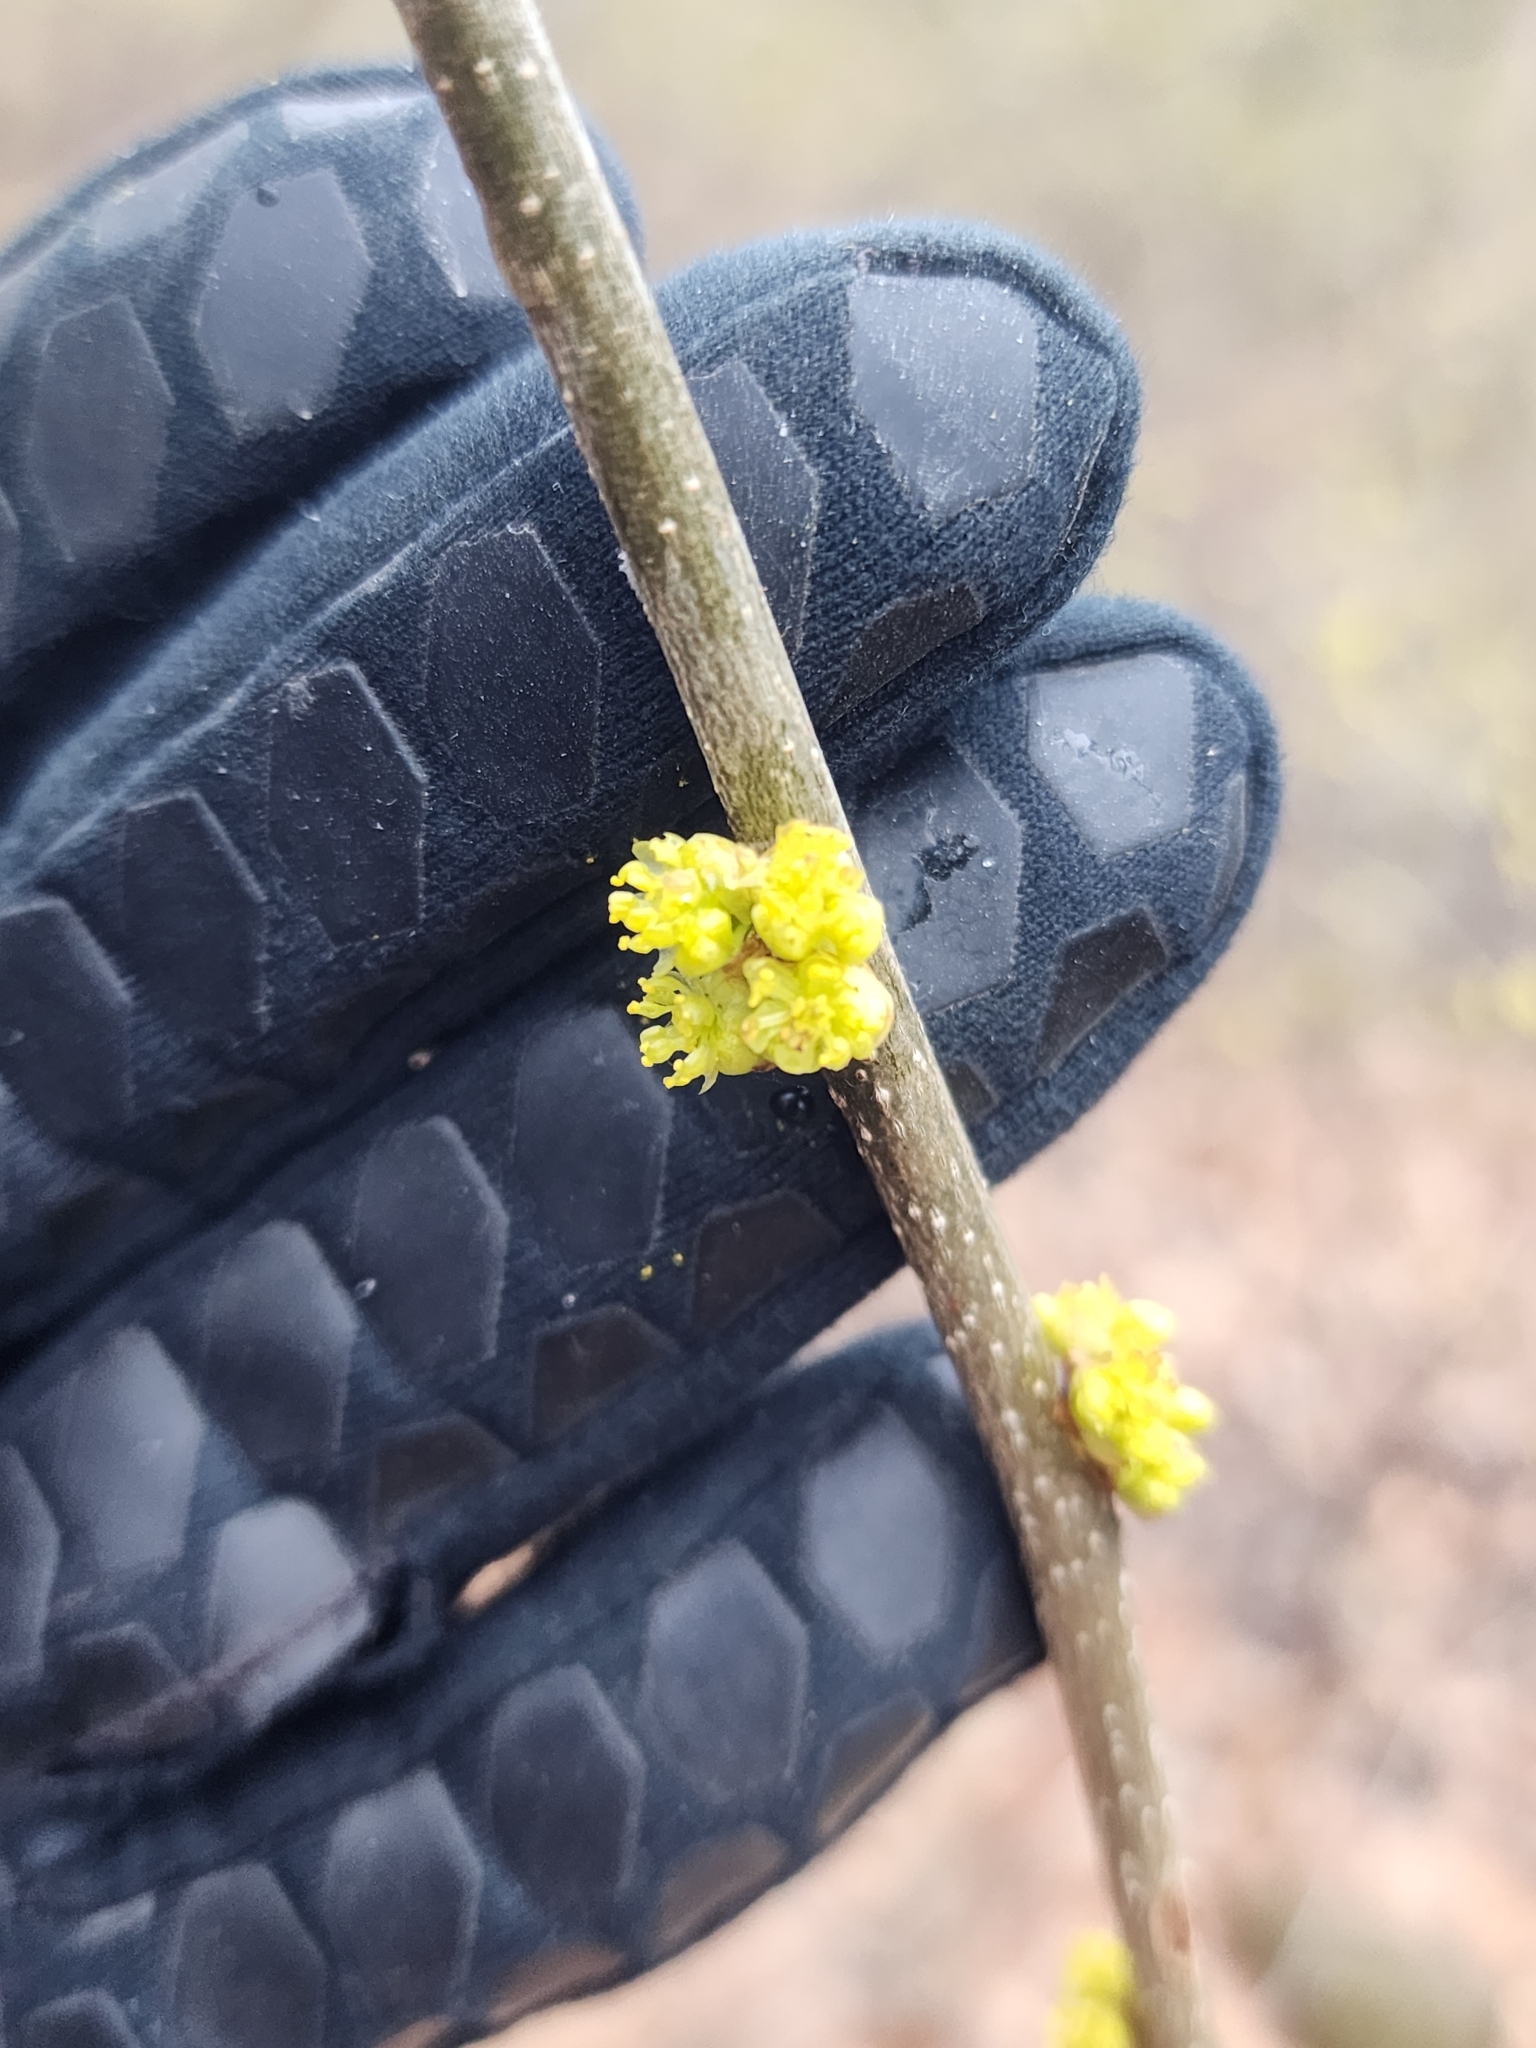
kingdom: Plantae
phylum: Tracheophyta
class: Magnoliopsida
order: Laurales
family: Lauraceae
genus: Lindera
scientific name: Lindera benzoin
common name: Spicebush
